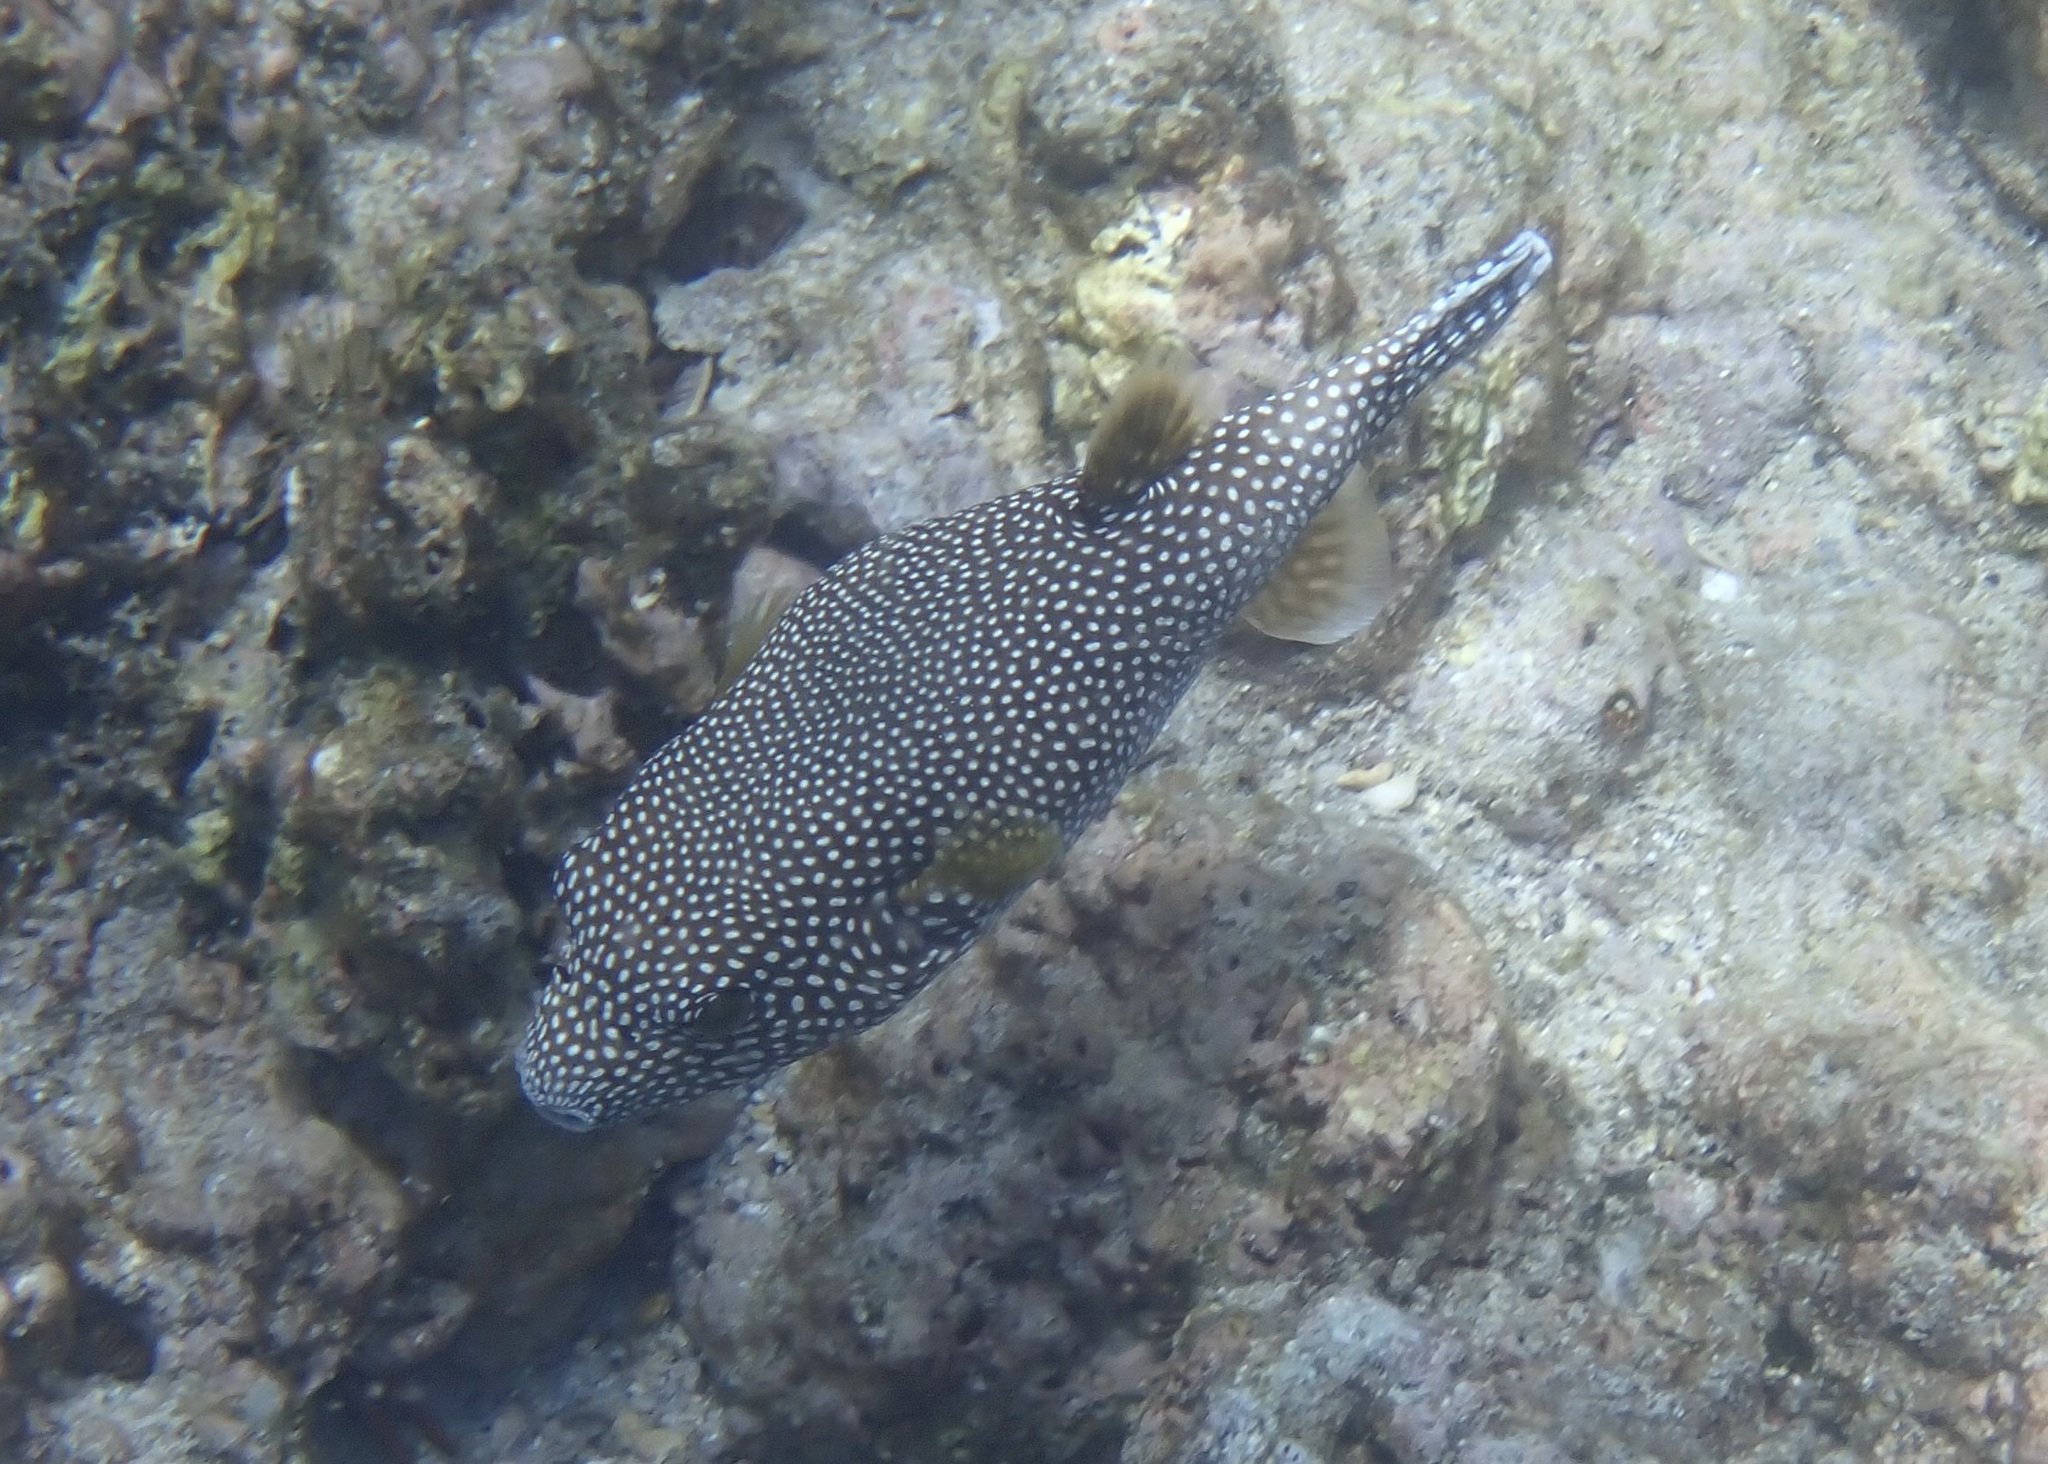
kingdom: Animalia
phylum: Chordata
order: Tetraodontiformes
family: Tetraodontidae
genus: Arothron
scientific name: Arothron meleagris
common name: Guinea-fowl pufferfish
